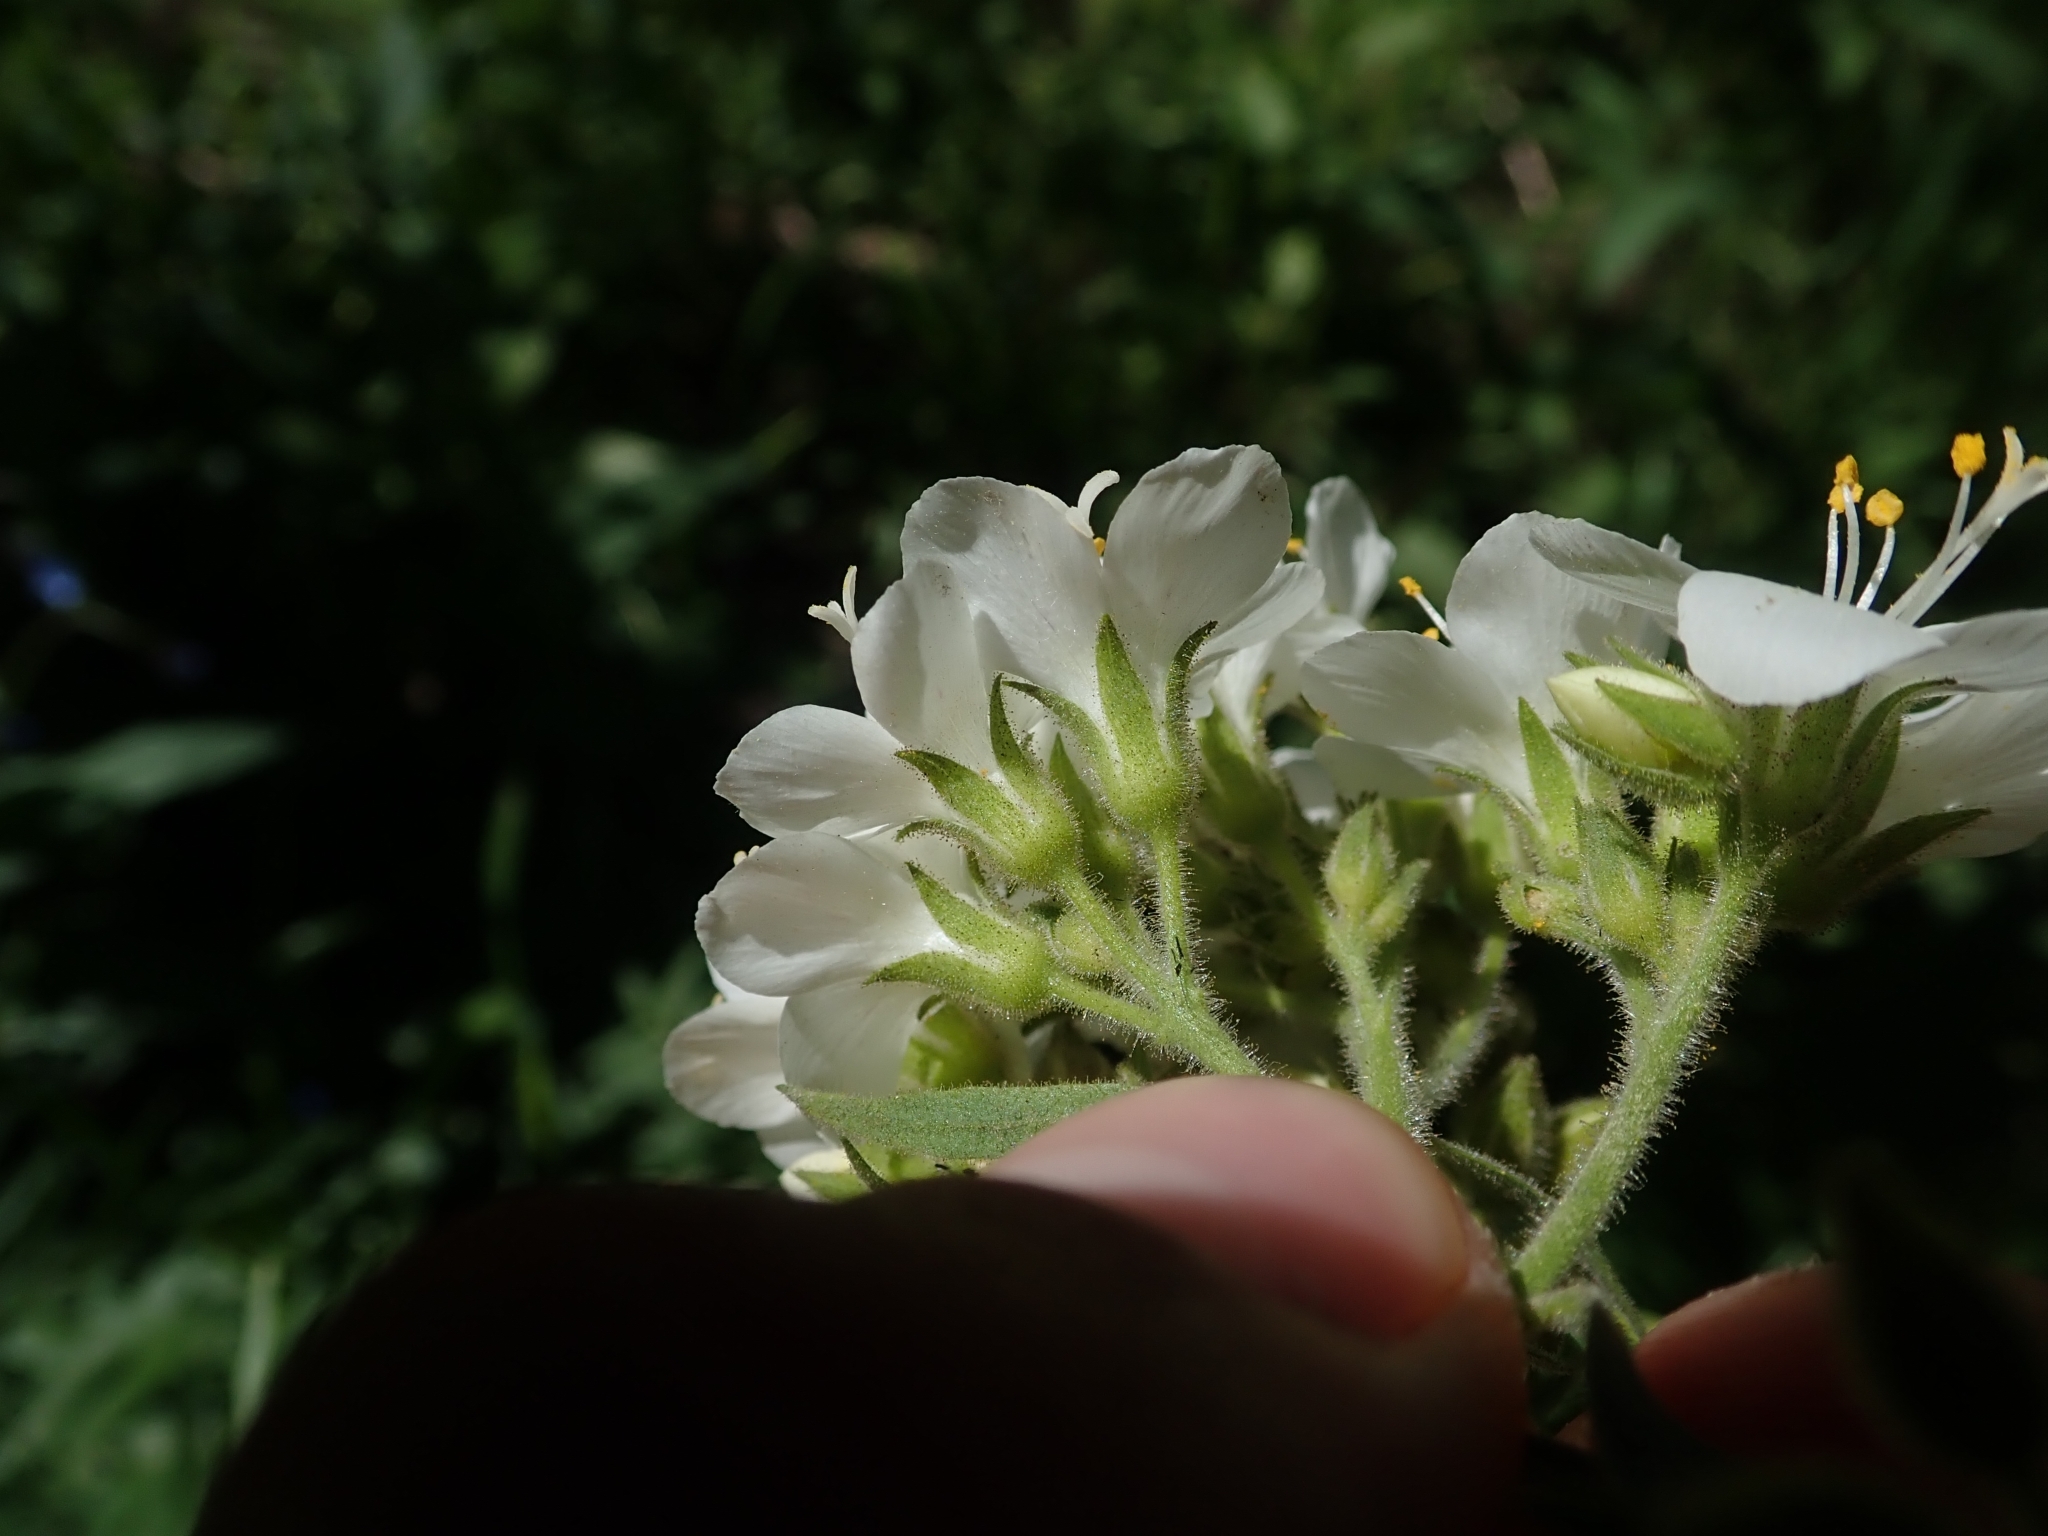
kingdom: Plantae
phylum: Tracheophyta
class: Magnoliopsida
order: Ericales
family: Polemoniaceae
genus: Polemonium
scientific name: Polemonium foliosissimum
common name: Leafy jacob's-ladder
